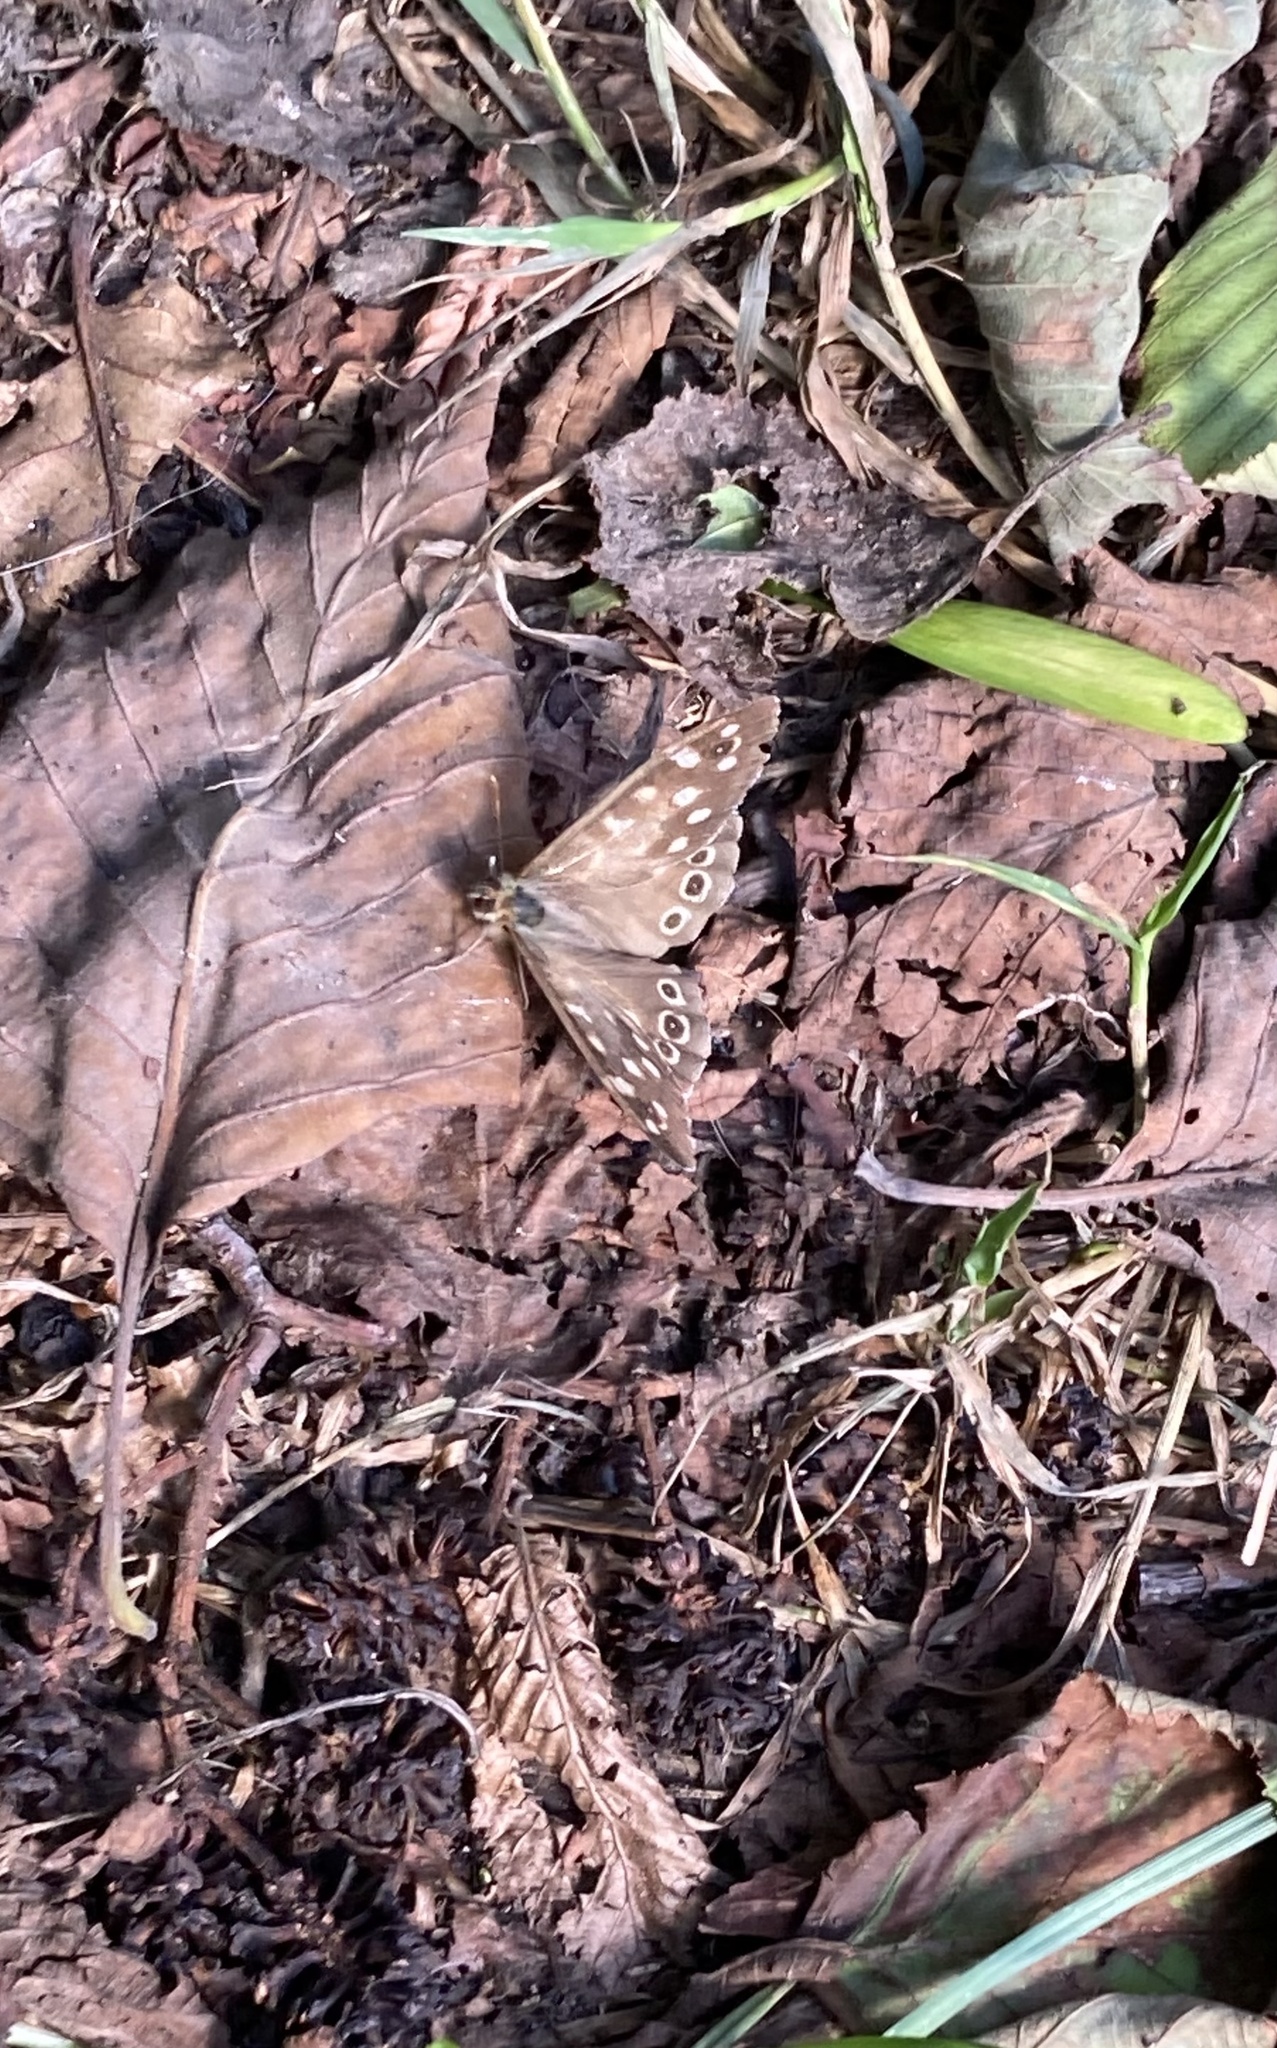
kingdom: Animalia
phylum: Arthropoda
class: Insecta
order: Lepidoptera
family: Nymphalidae
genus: Pararge
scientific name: Pararge aegeria
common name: Speckled wood
